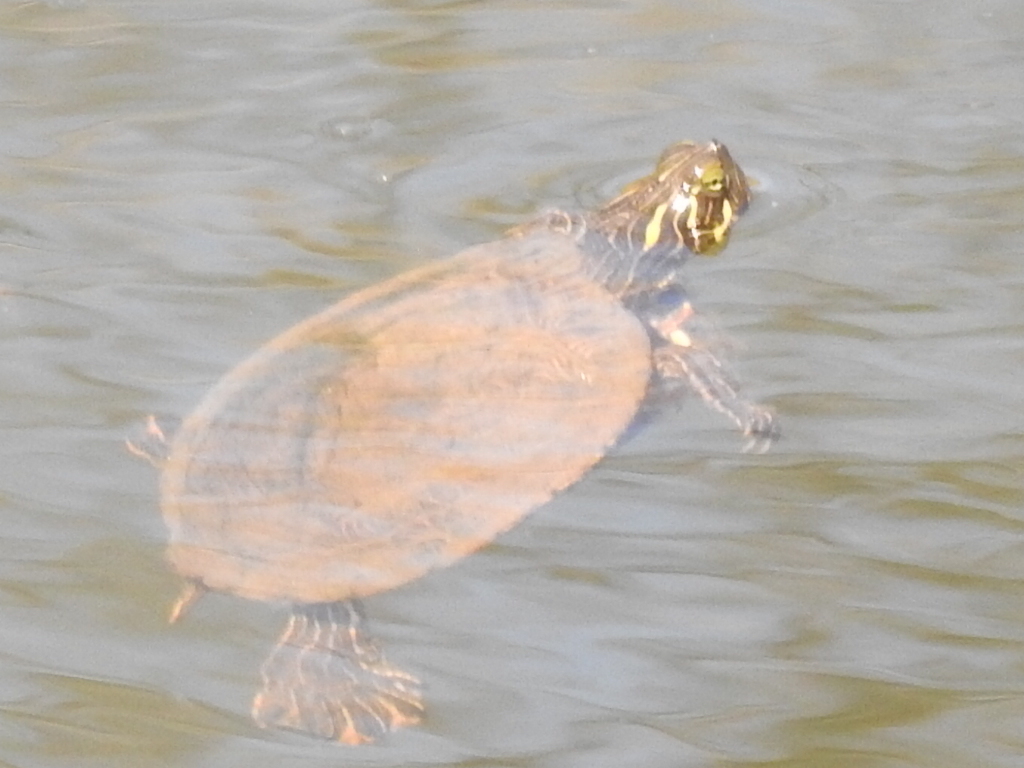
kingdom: Animalia
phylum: Chordata
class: Testudines
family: Emydidae
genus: Pseudemys
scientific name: Pseudemys concinna
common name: Eastern river cooter
